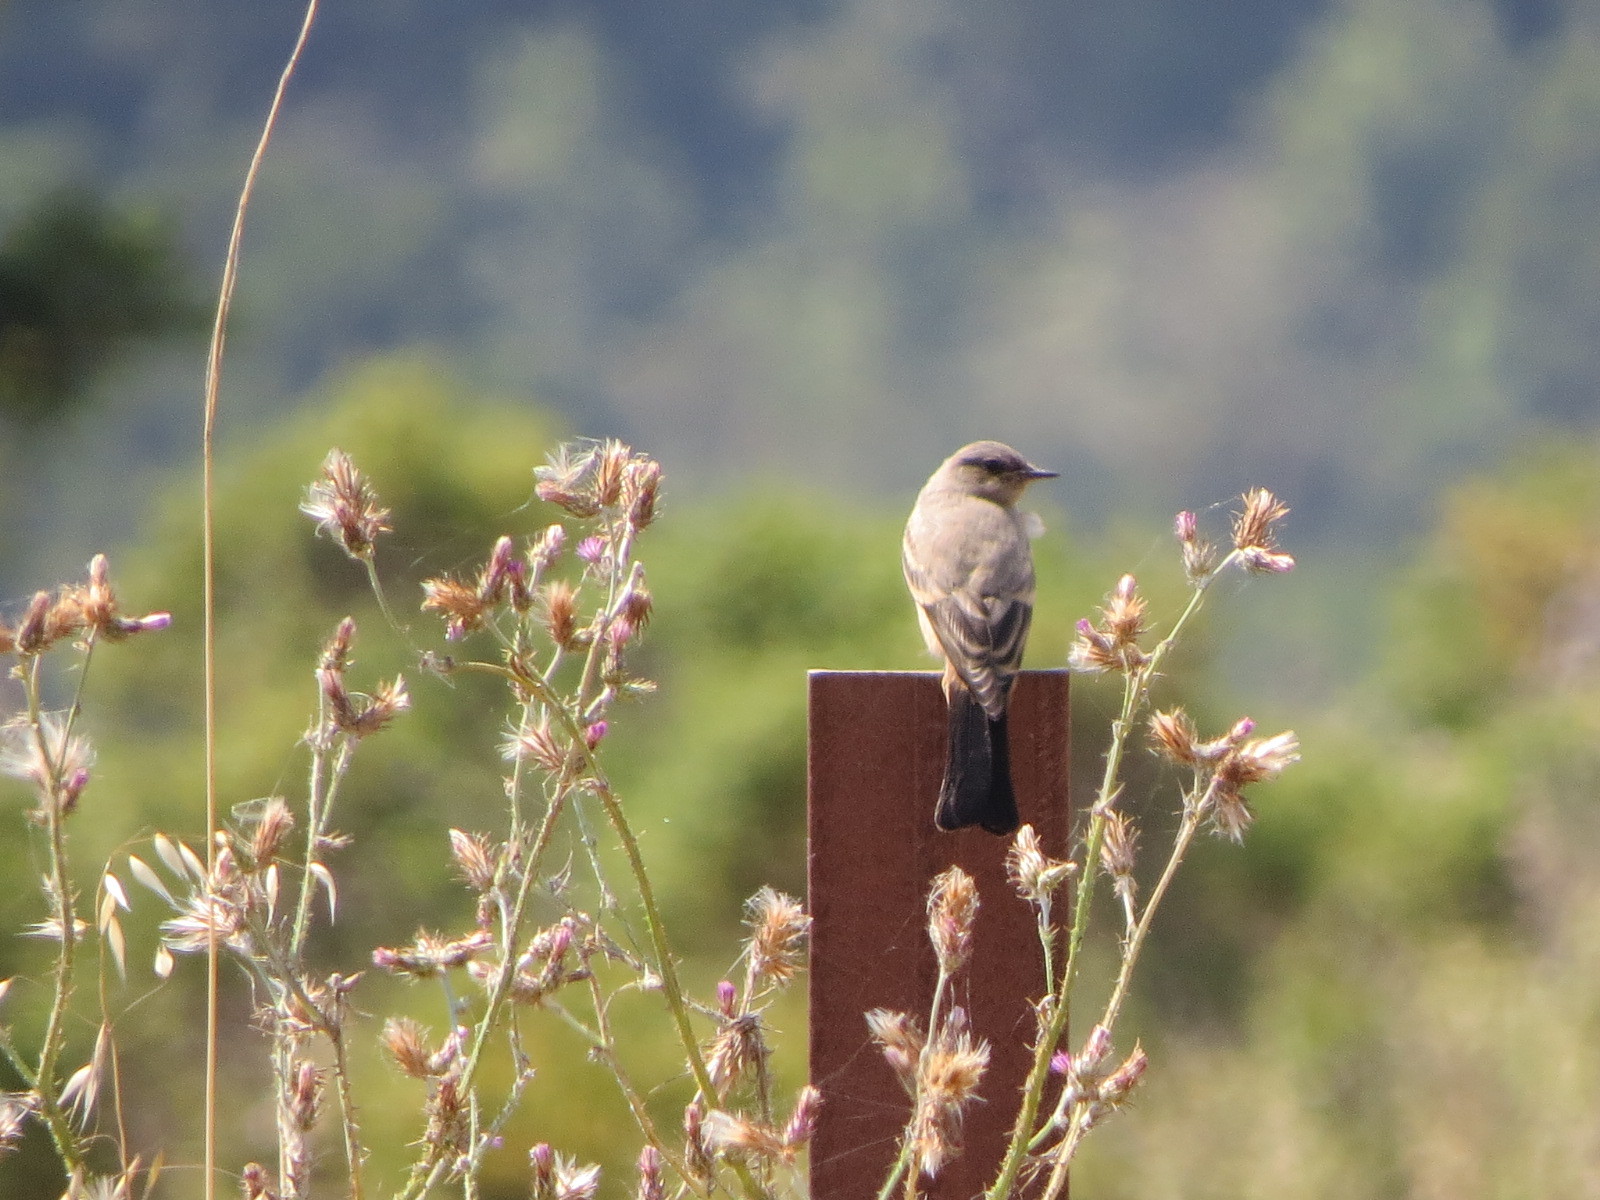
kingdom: Animalia
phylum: Chordata
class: Aves
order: Passeriformes
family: Tyrannidae
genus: Sayornis
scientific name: Sayornis saya
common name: Say's phoebe
